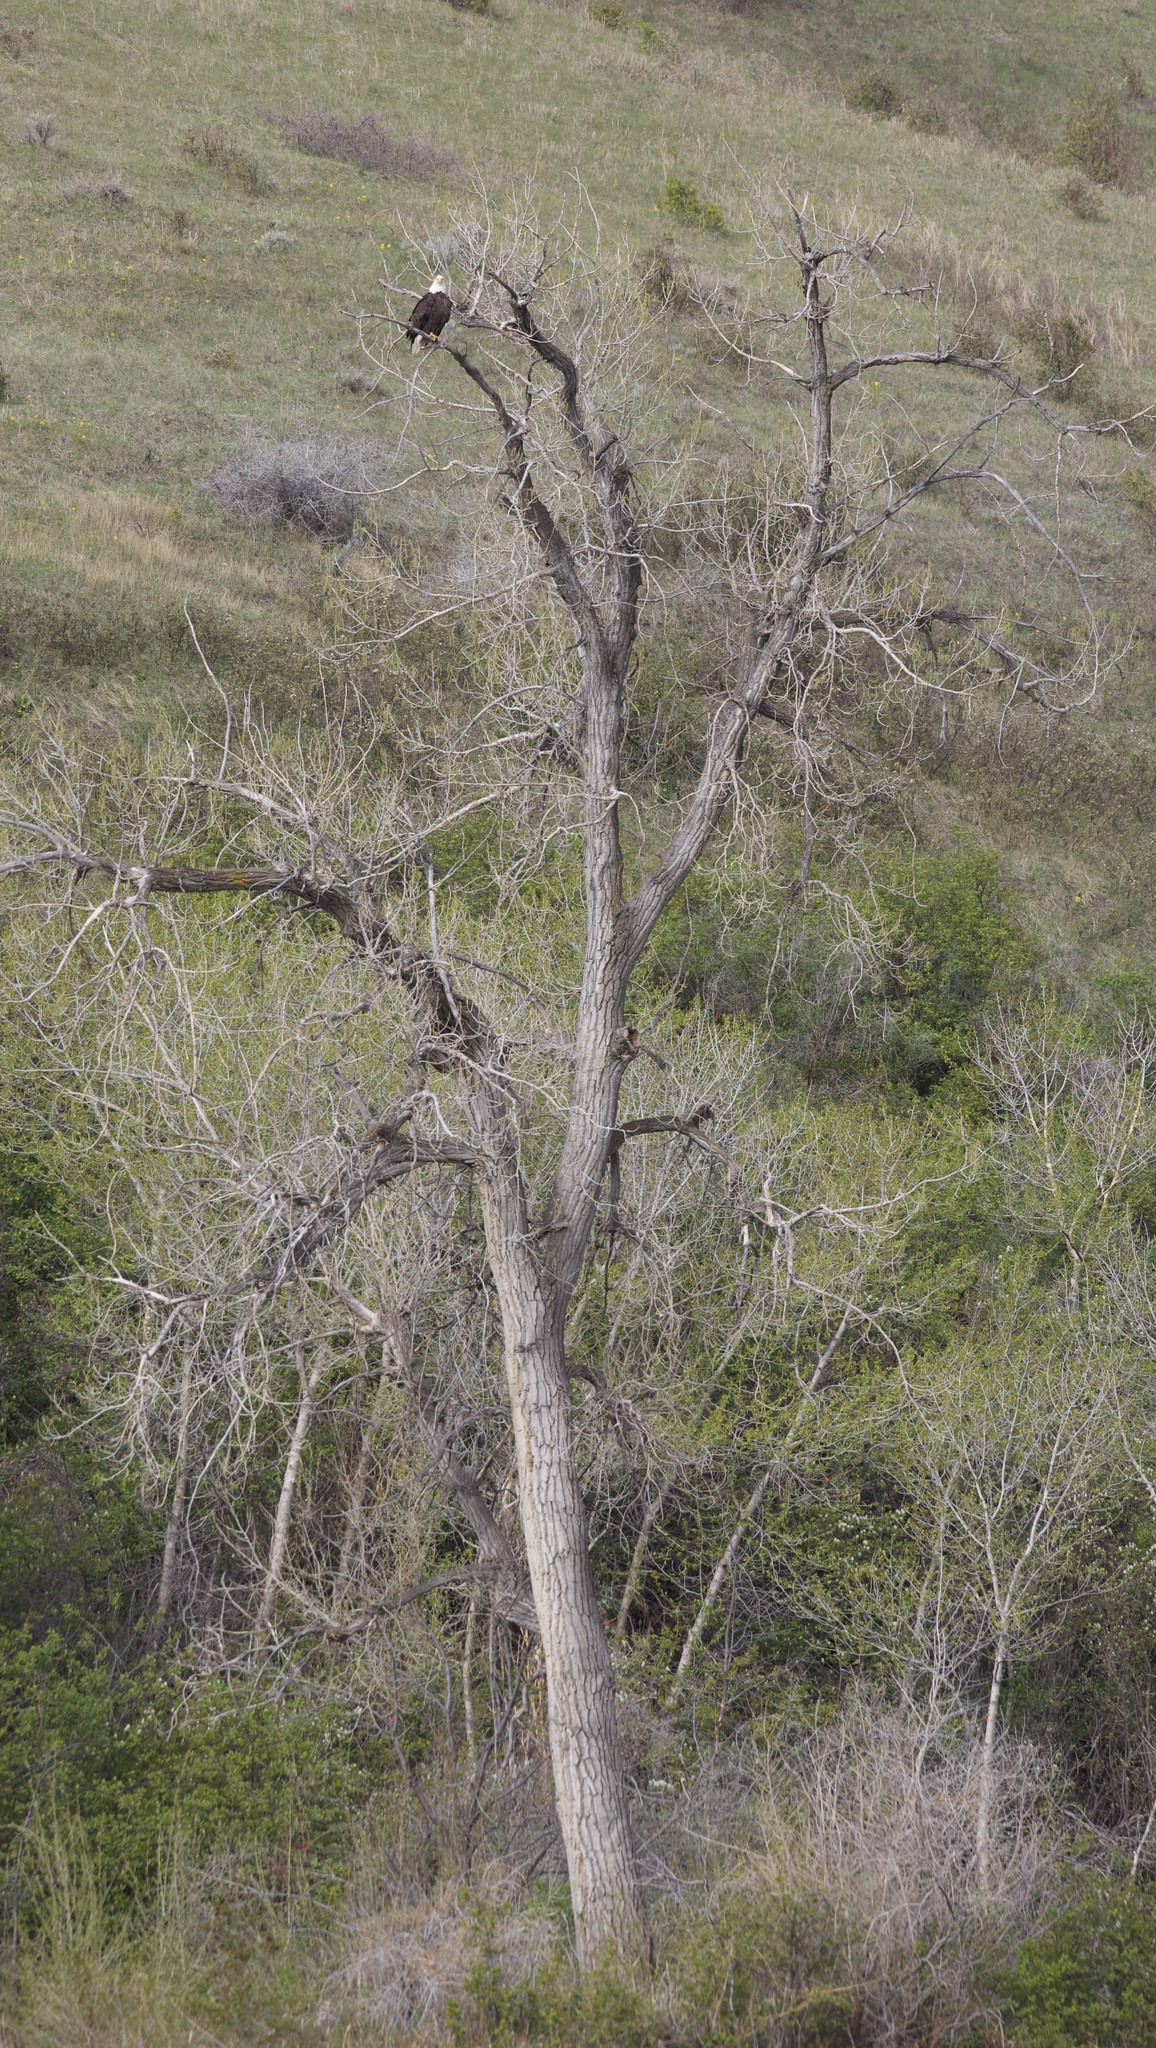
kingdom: Animalia
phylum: Chordata
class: Aves
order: Accipitriformes
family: Accipitridae
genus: Haliaeetus
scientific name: Haliaeetus leucocephalus
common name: Bald eagle
